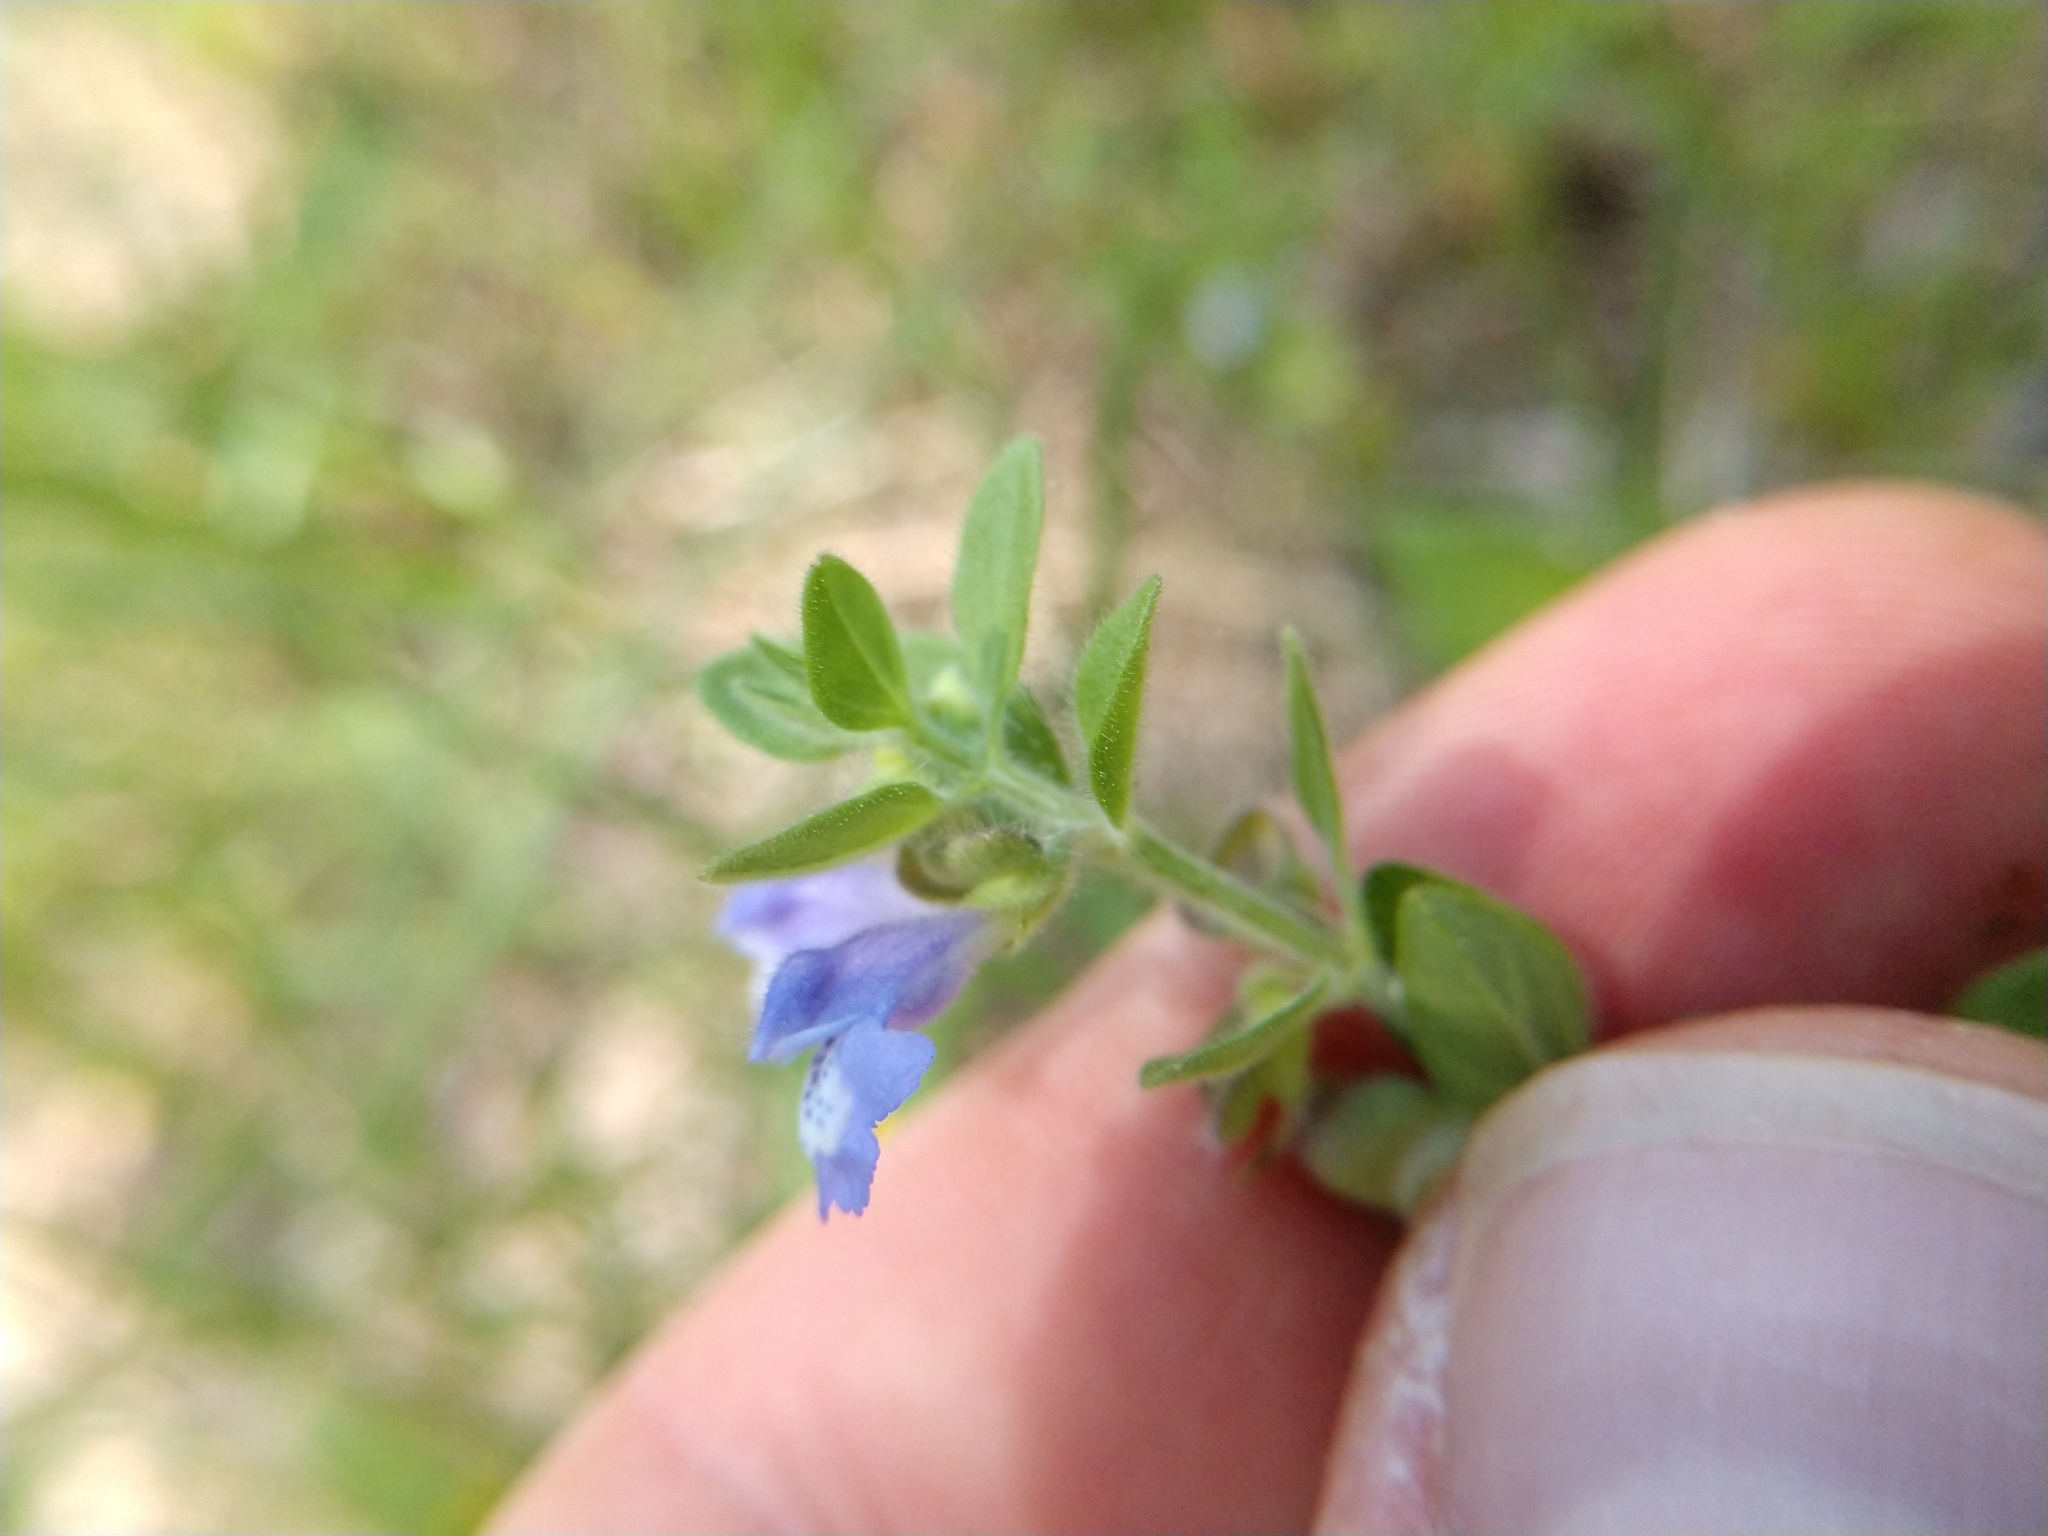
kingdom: Plantae
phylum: Tracheophyta
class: Magnoliopsida
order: Lamiales
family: Lamiaceae
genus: Scutellaria
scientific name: Scutellaria drummondii
